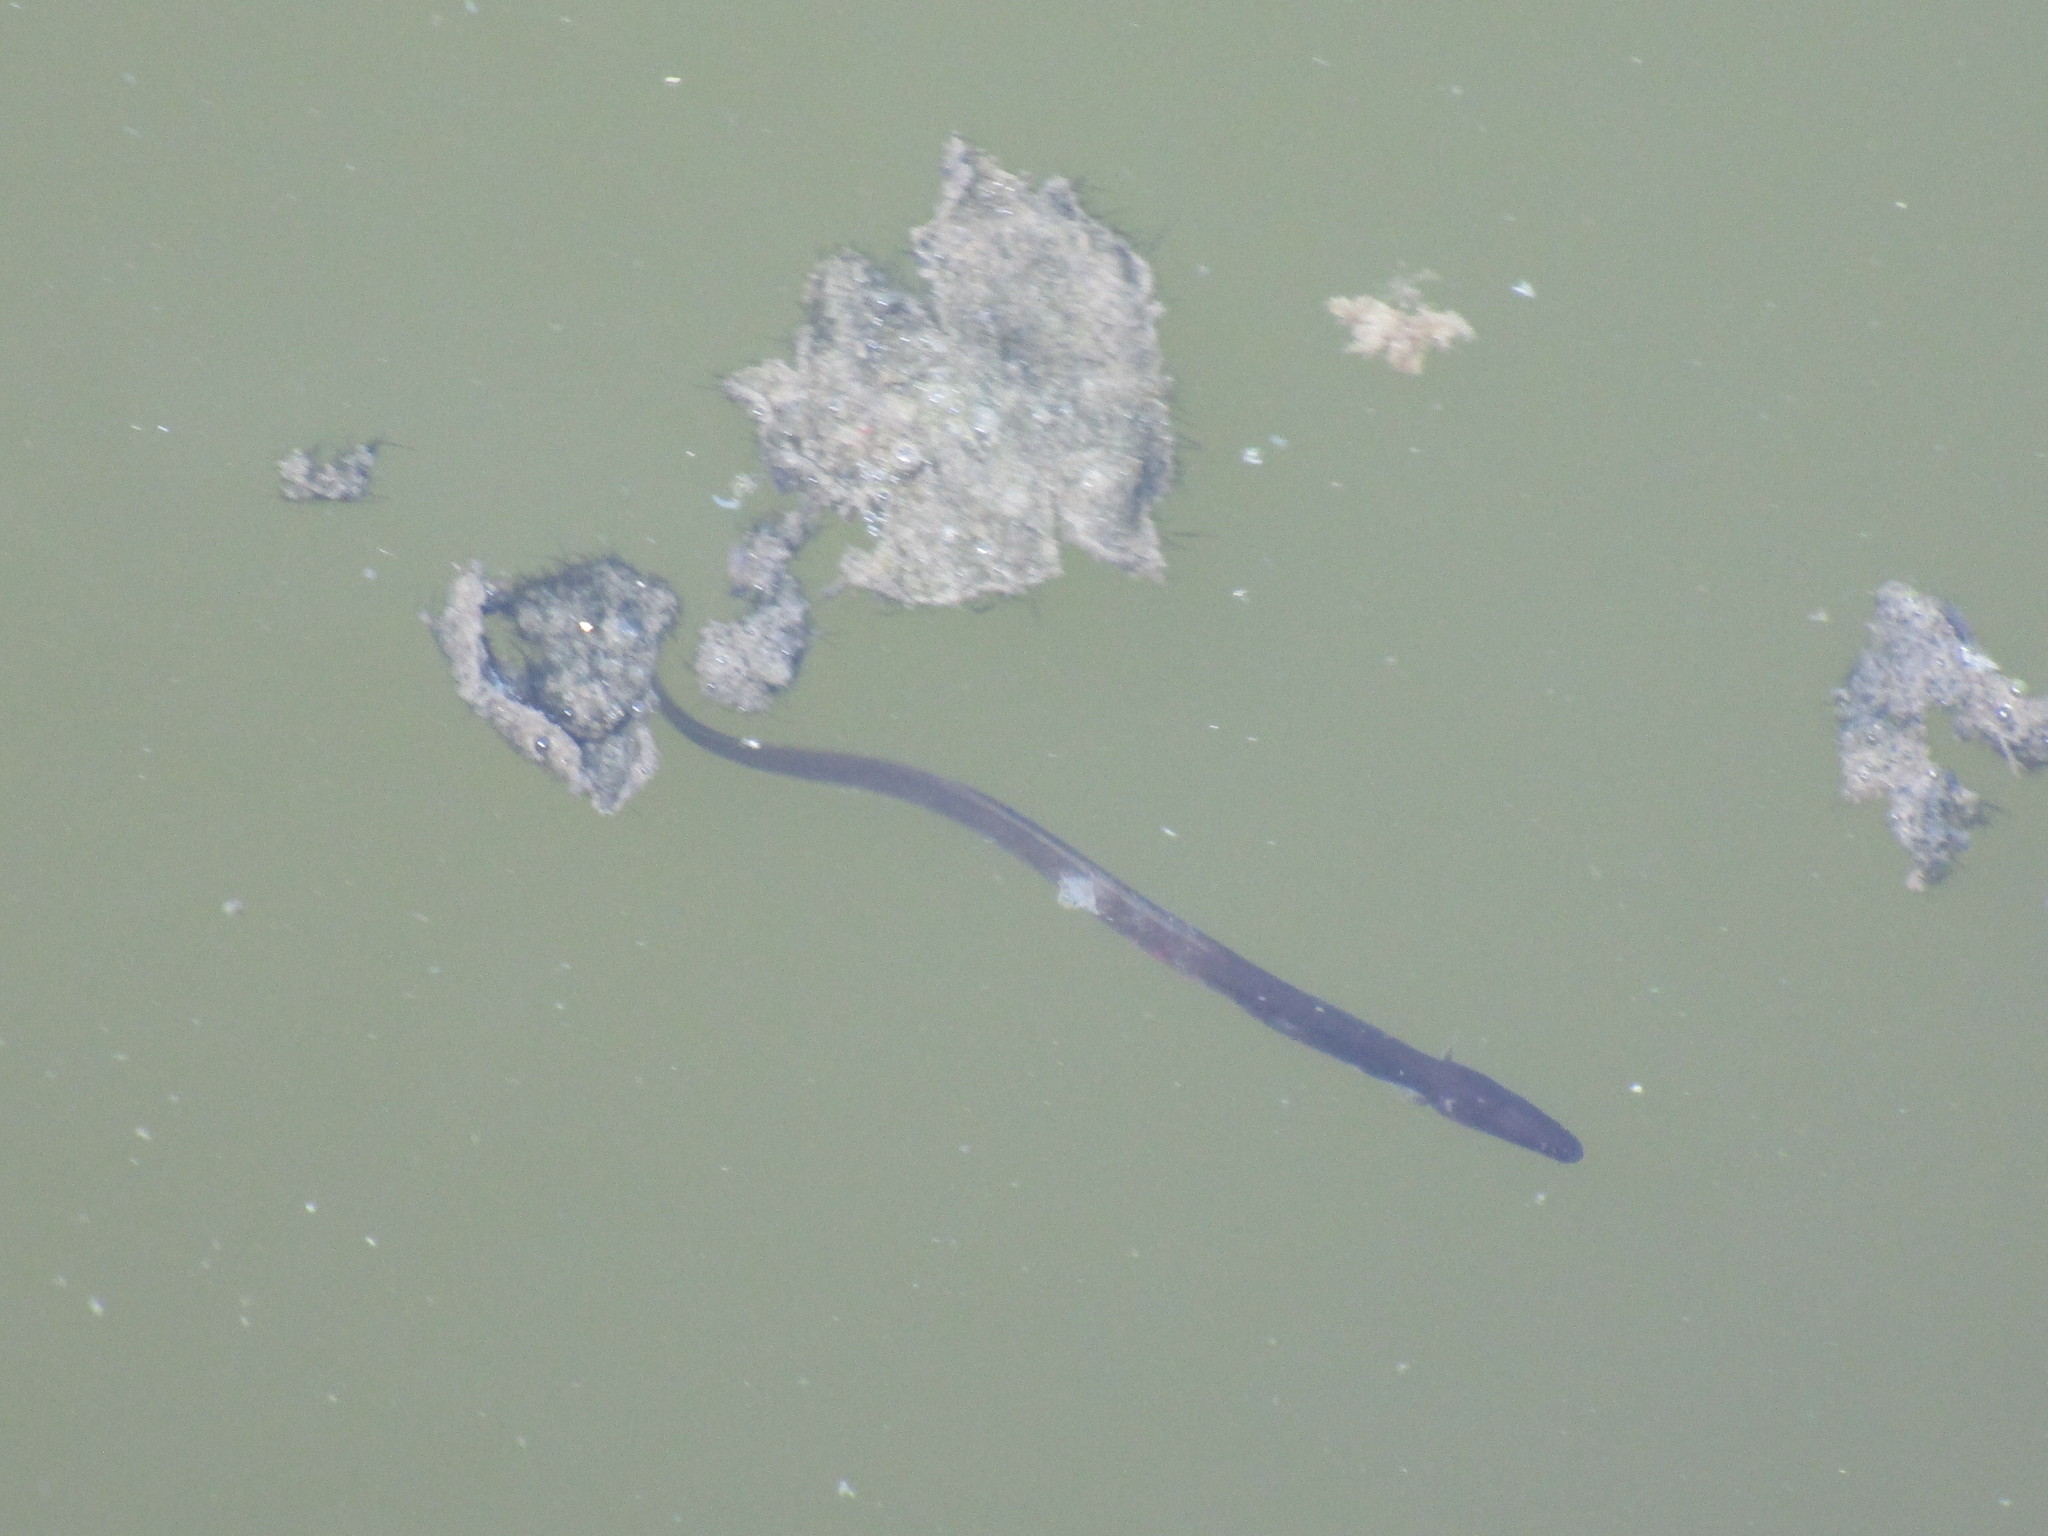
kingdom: Animalia
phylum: Chordata
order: Anguilliformes
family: Anguillidae
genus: Anguilla
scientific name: Anguilla rostrata
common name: American eel
